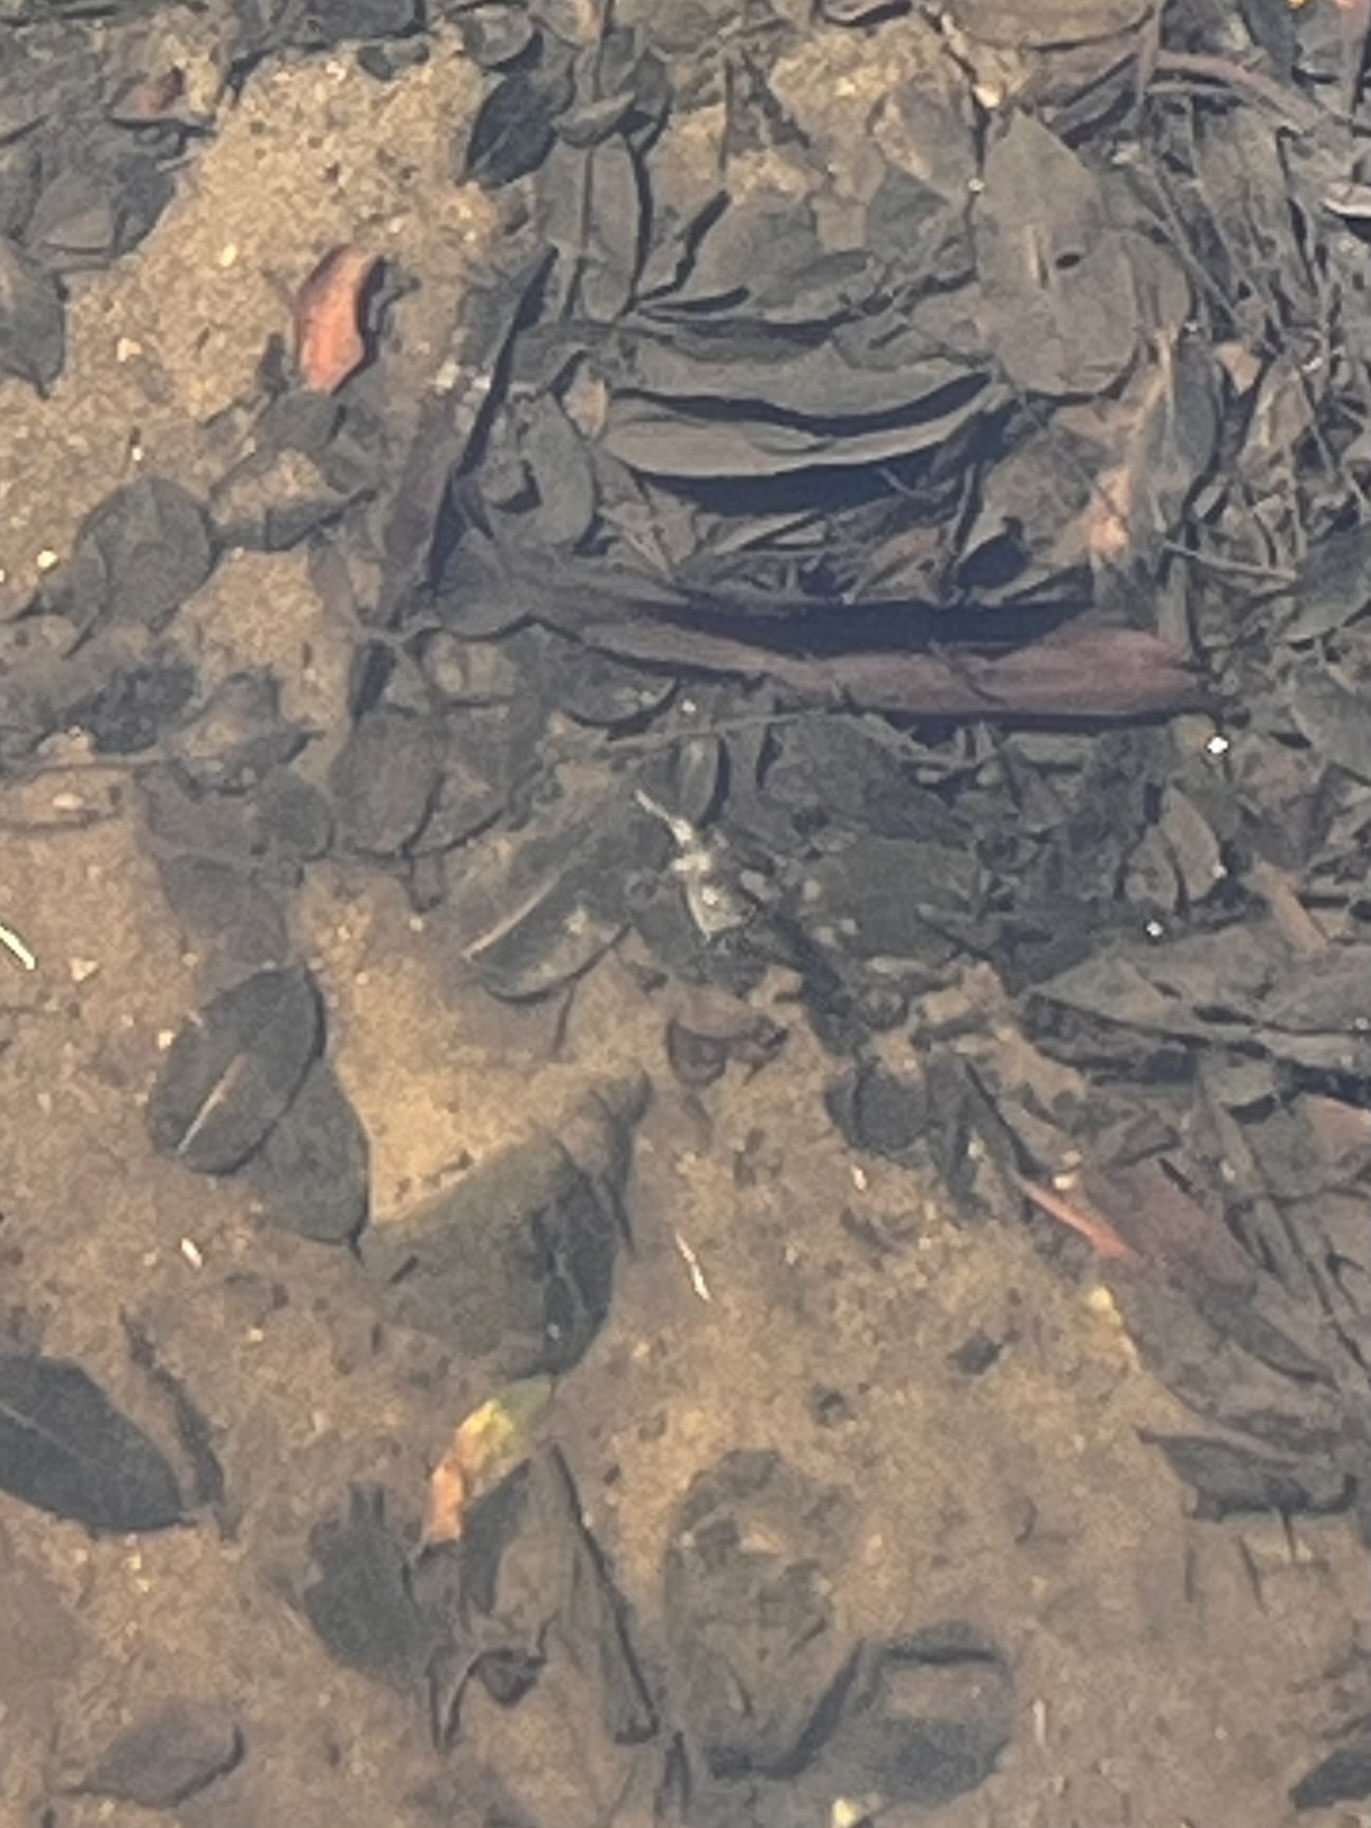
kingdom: Animalia
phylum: Chordata
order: Tetraodontiformes
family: Tetraodontidae
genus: Marilyna
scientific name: Marilyna pleurosticta
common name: Banded toadfish
